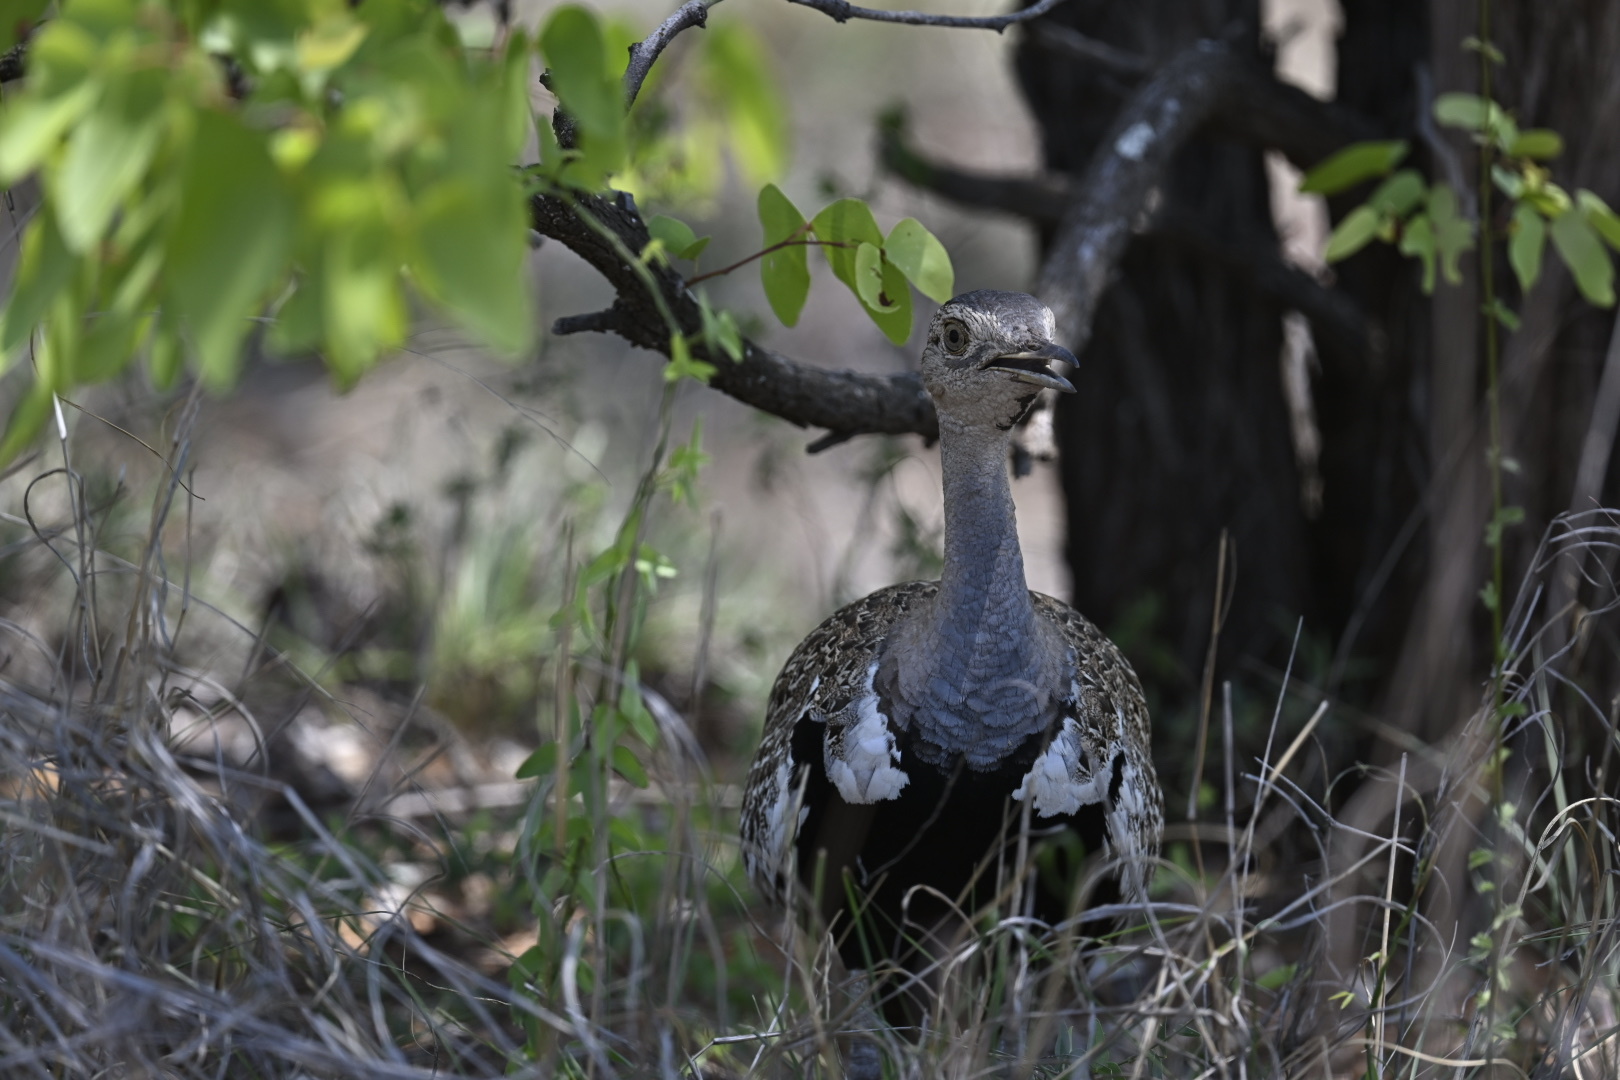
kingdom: Animalia
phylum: Chordata
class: Aves
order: Otidiformes
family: Otididae
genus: Lophotis
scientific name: Lophotis ruficrista
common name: Red-crested korhaan
